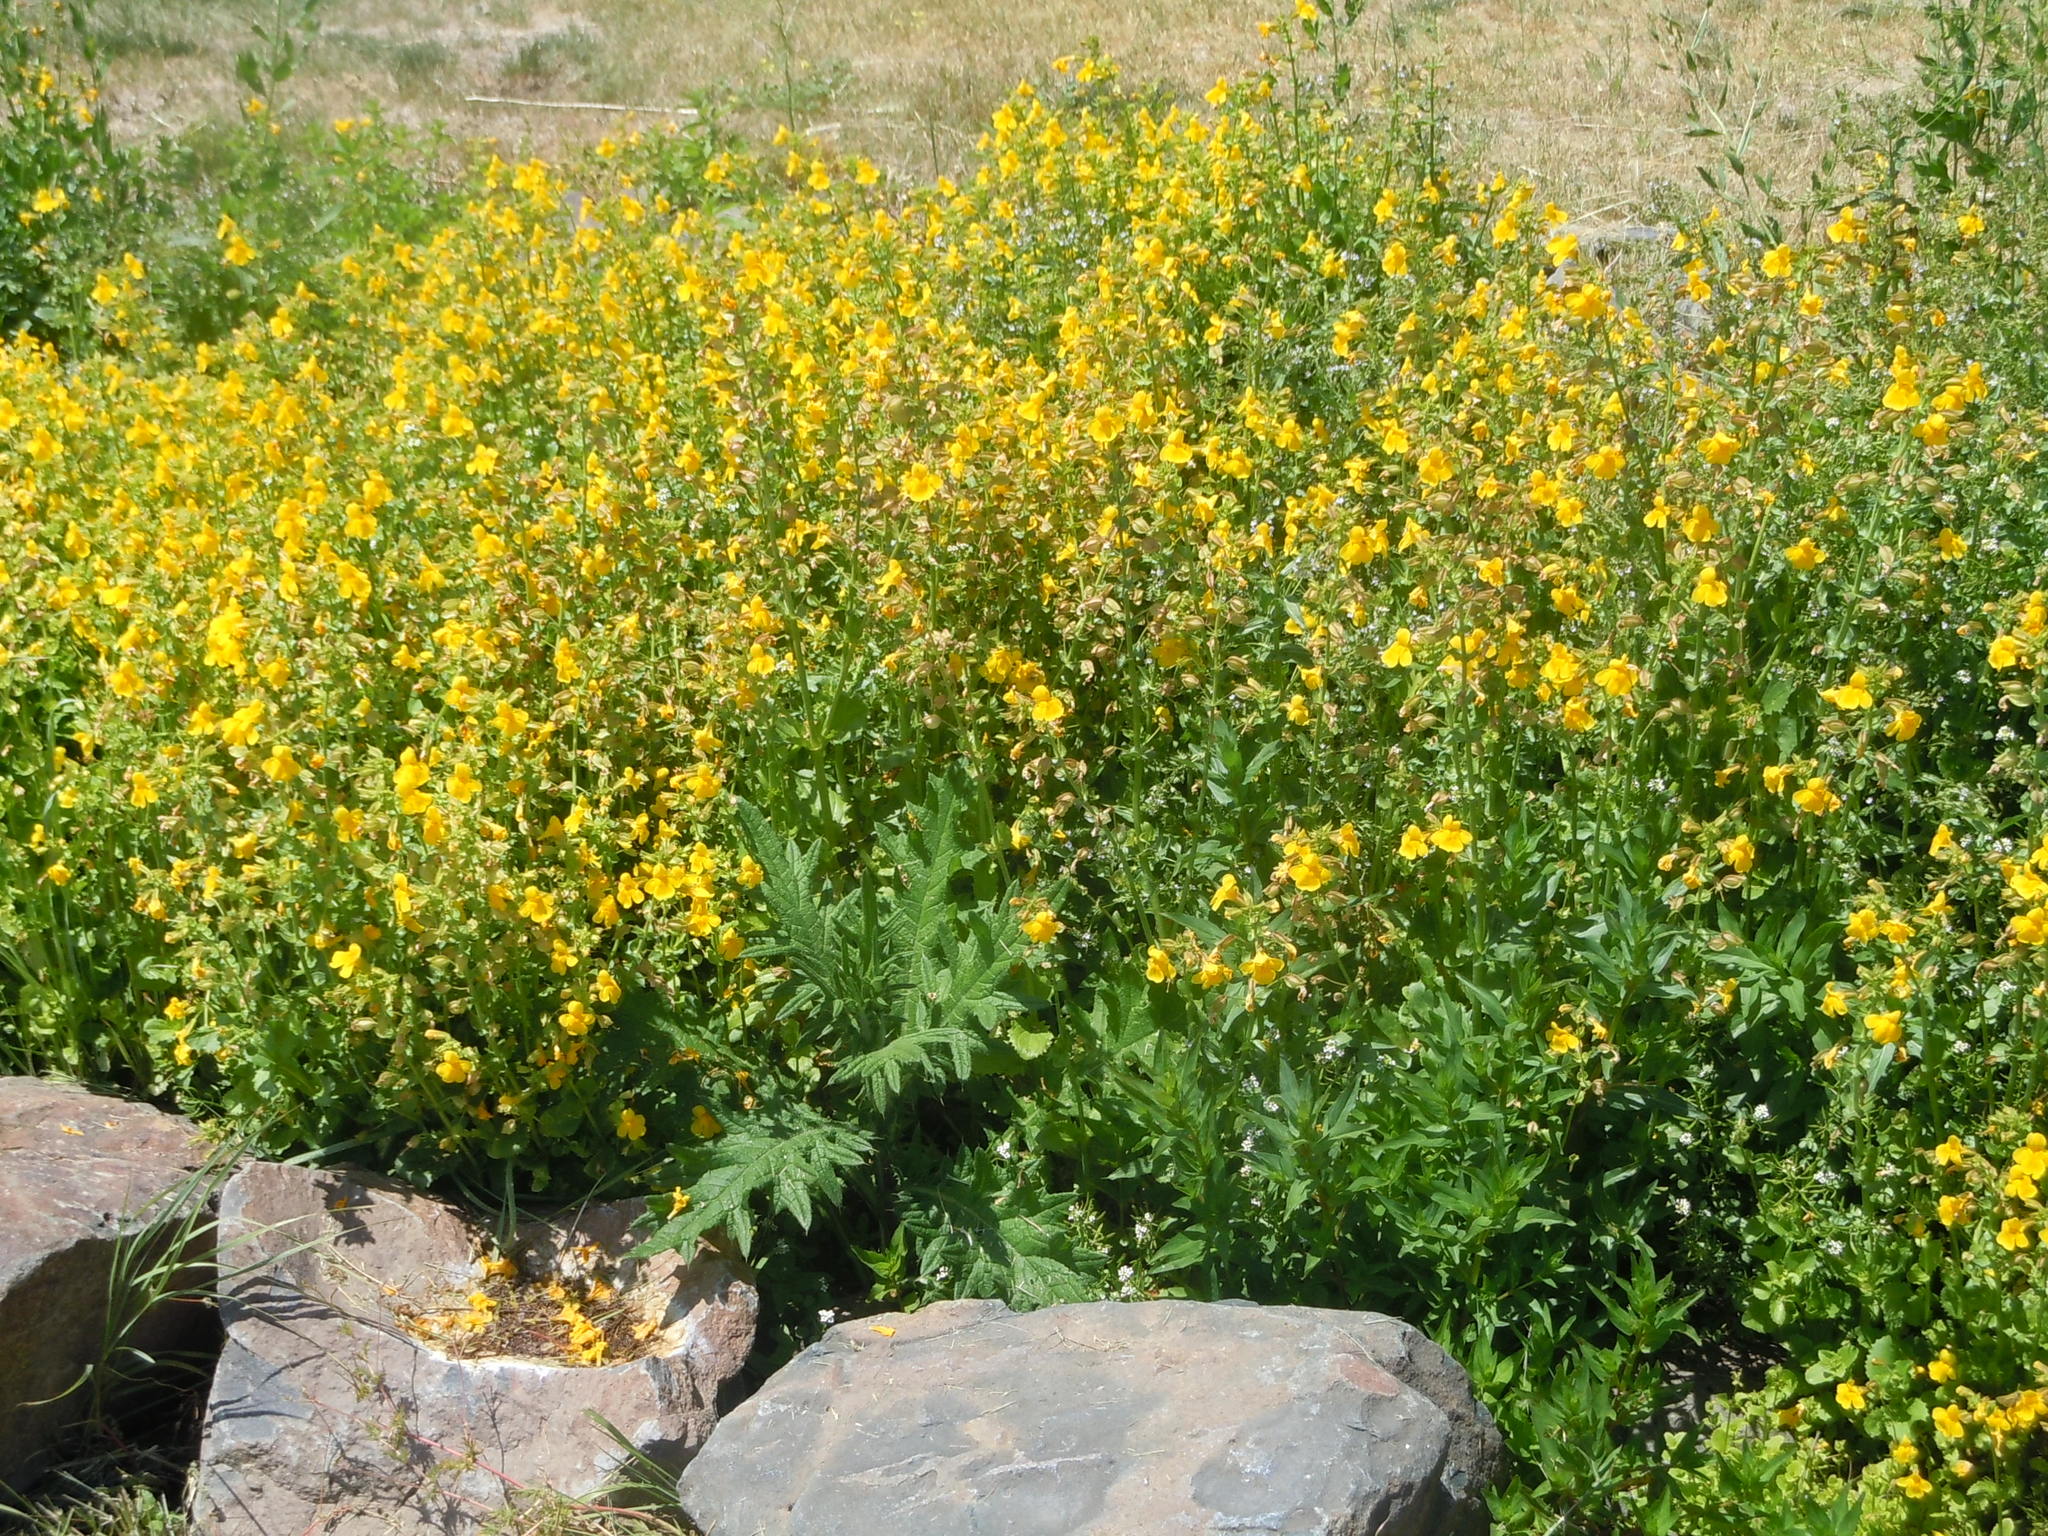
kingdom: Plantae
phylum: Tracheophyta
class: Magnoliopsida
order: Lamiales
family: Phrymaceae
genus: Erythranthe
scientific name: Erythranthe guttata
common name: Monkeyflower
